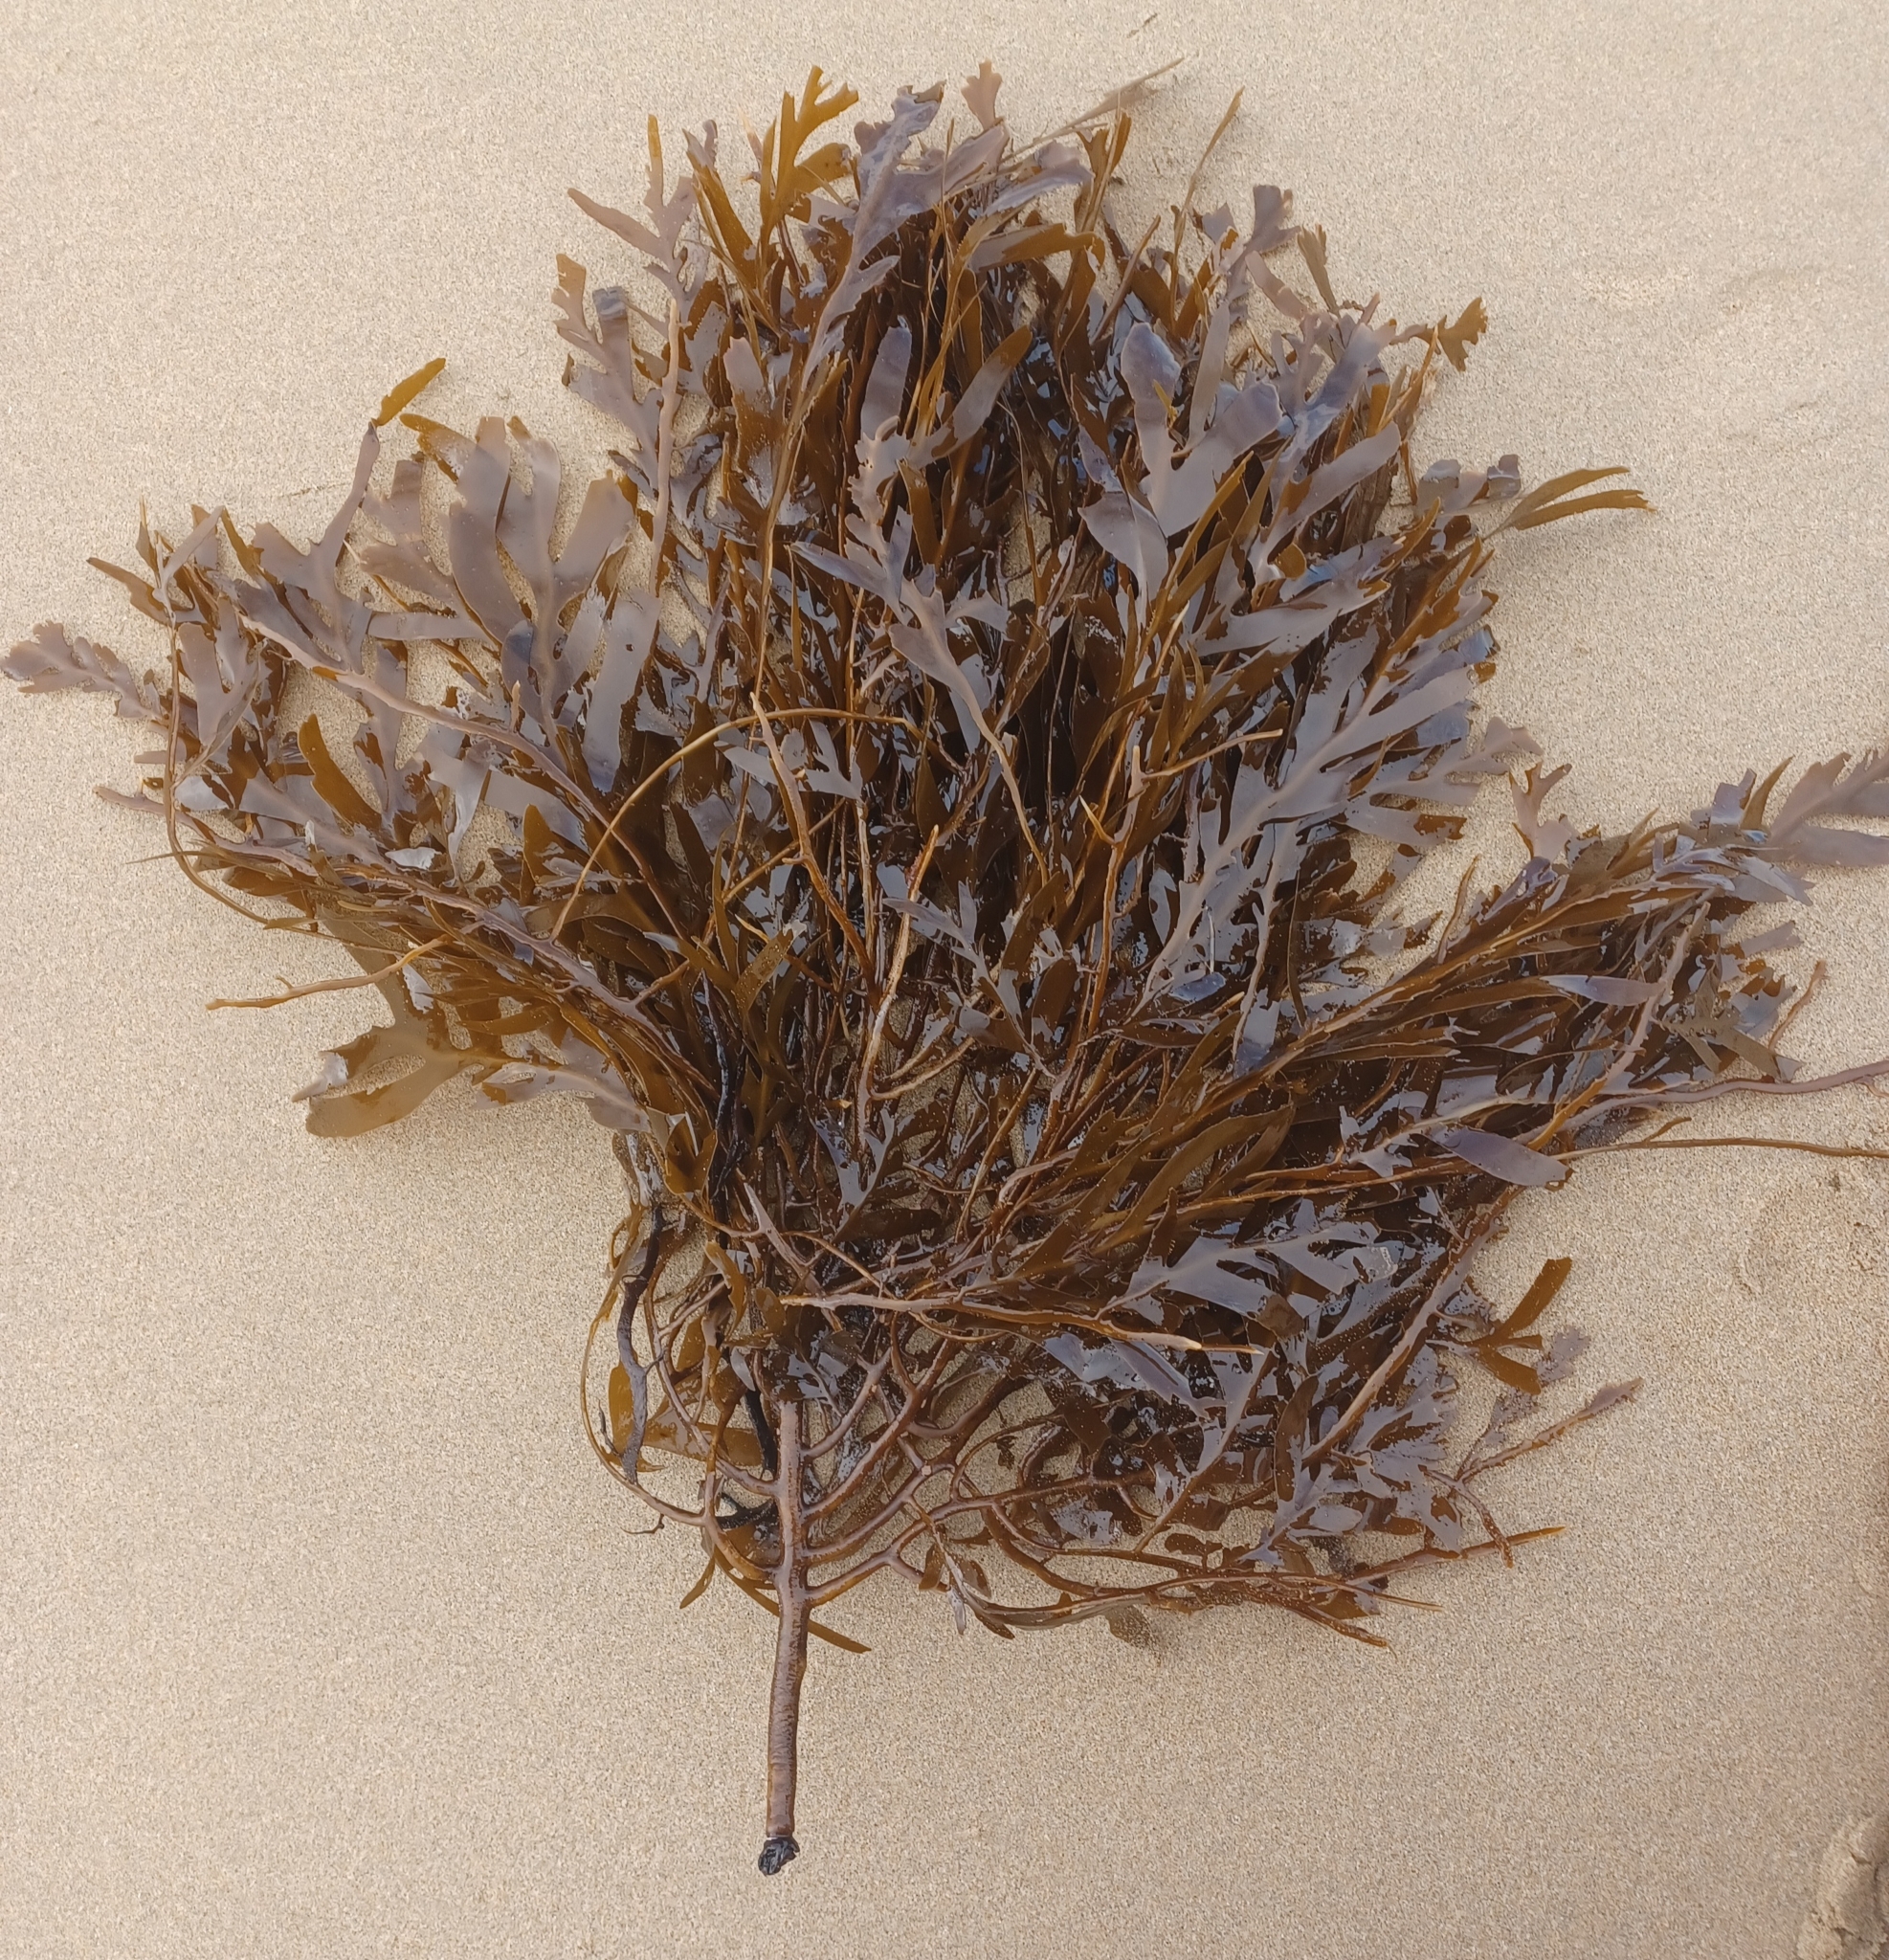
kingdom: Chromista
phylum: Ochrophyta
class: Phaeophyceae
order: Fucales
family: Seirococcaceae
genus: Seirococcus
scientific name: Seirococcus axillaris
